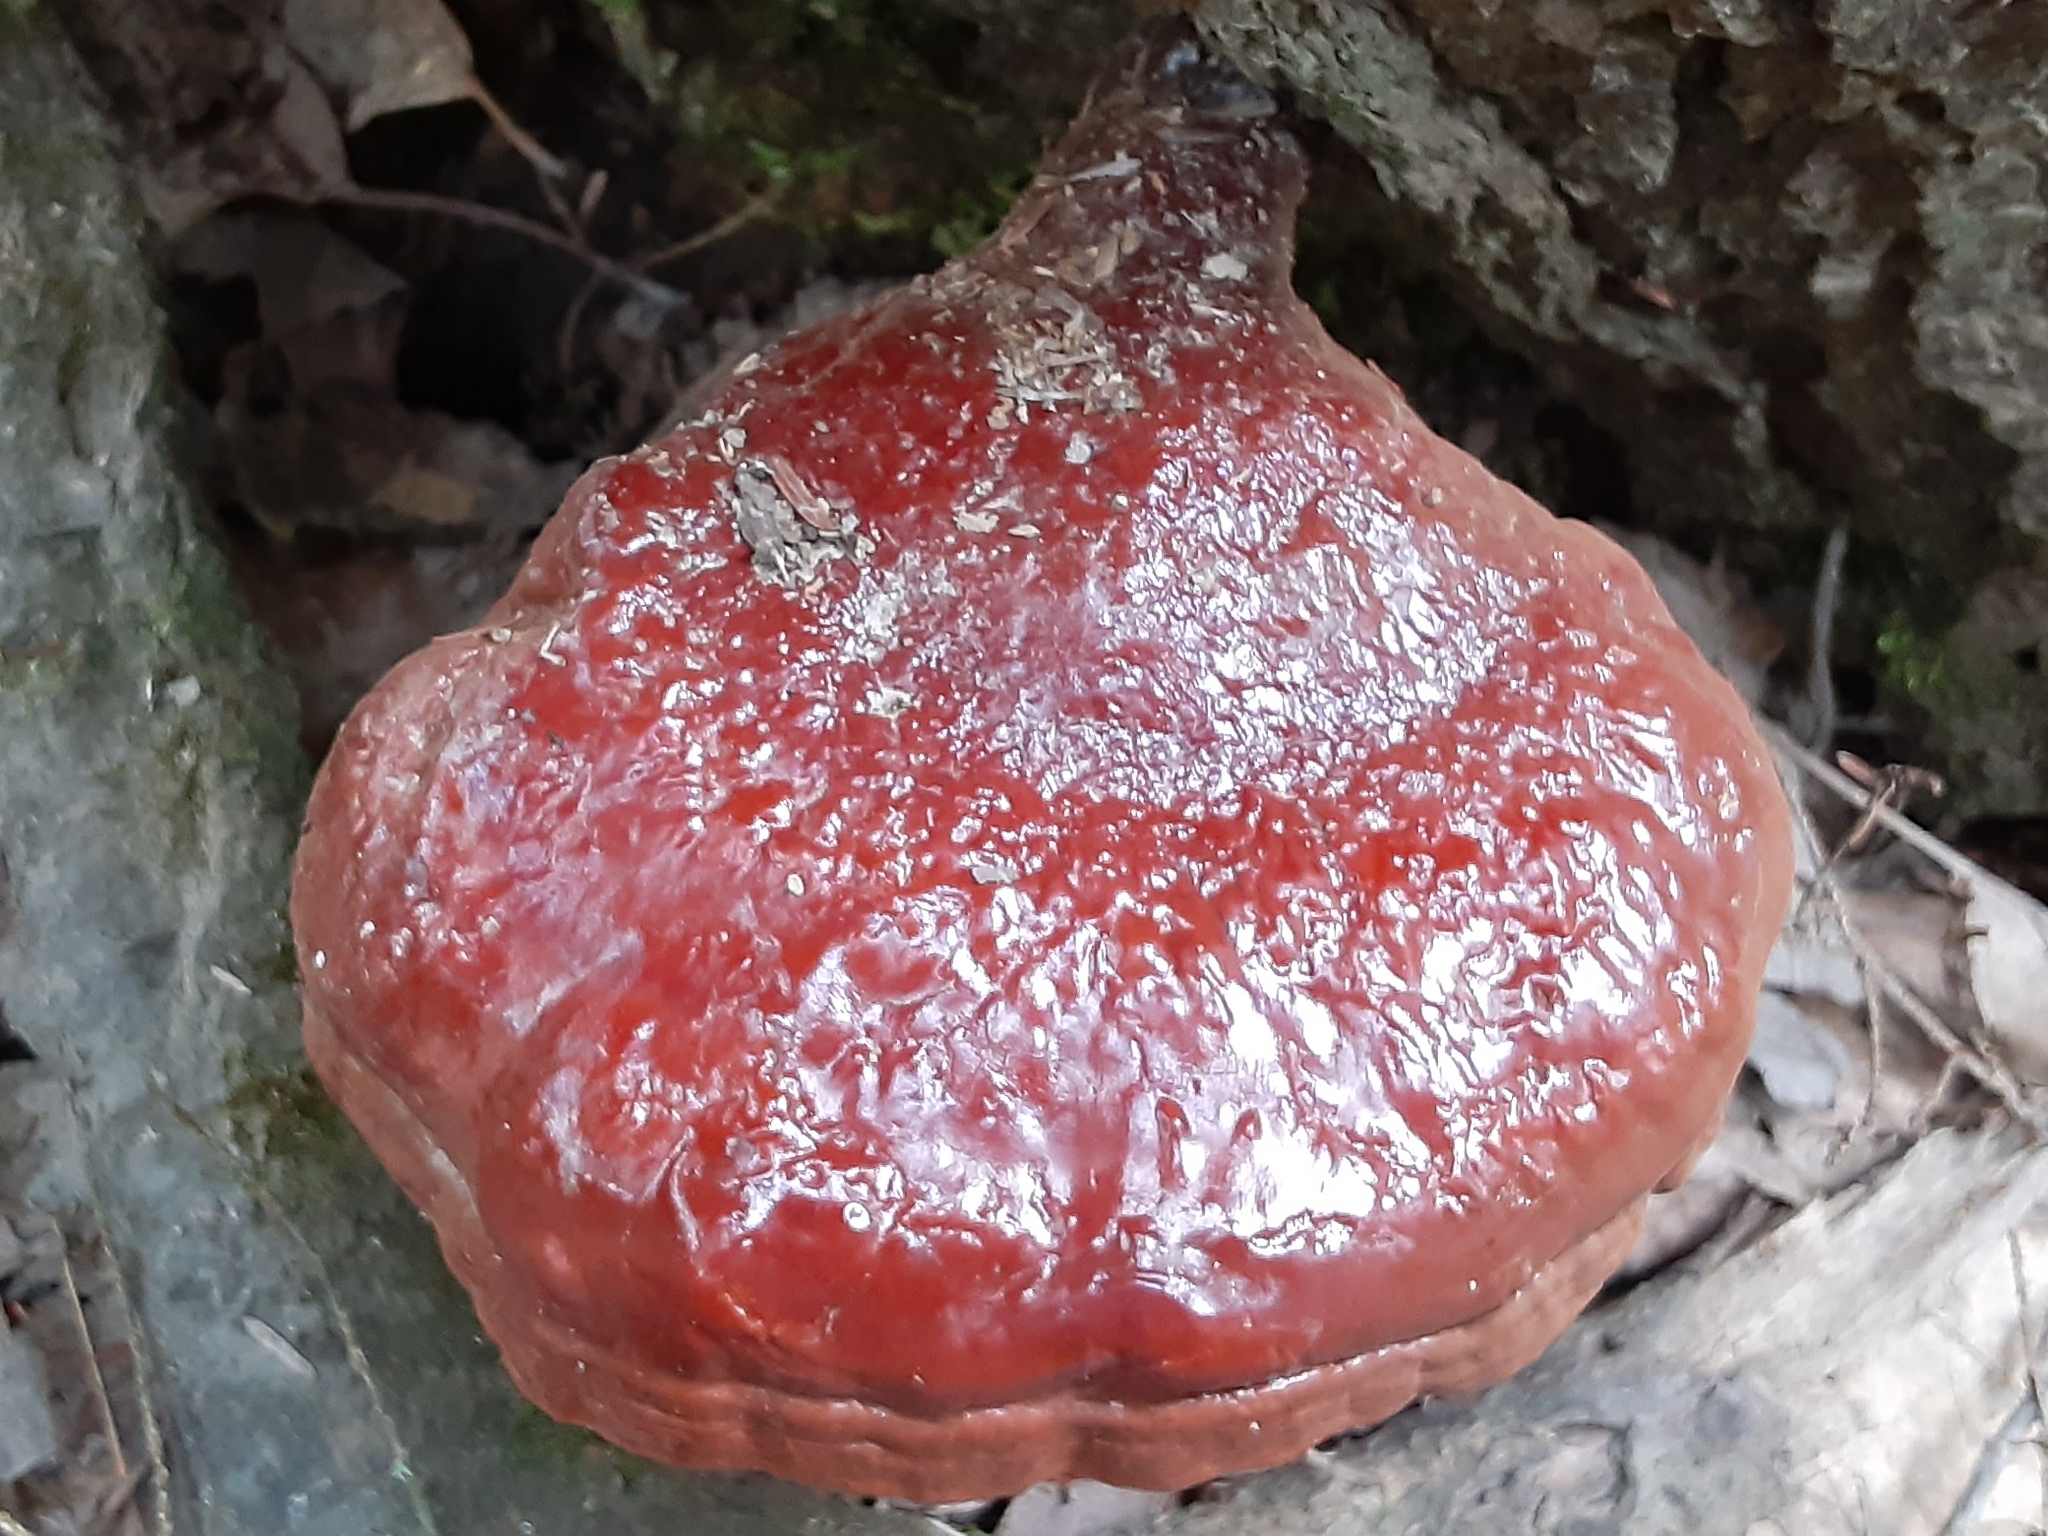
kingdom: Fungi
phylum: Basidiomycota
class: Agaricomycetes
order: Polyporales
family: Polyporaceae
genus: Ganoderma
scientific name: Ganoderma tsugae
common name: Hemlock varnish shelf
